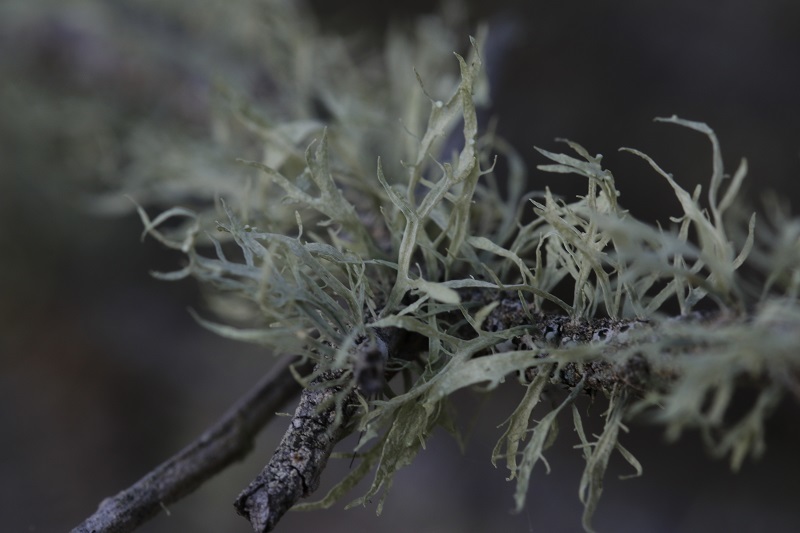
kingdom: Fungi
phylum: Ascomycota
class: Lecanoromycetes
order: Lecanorales
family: Ramalinaceae
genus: Ramalina
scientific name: Ramalina celastri
